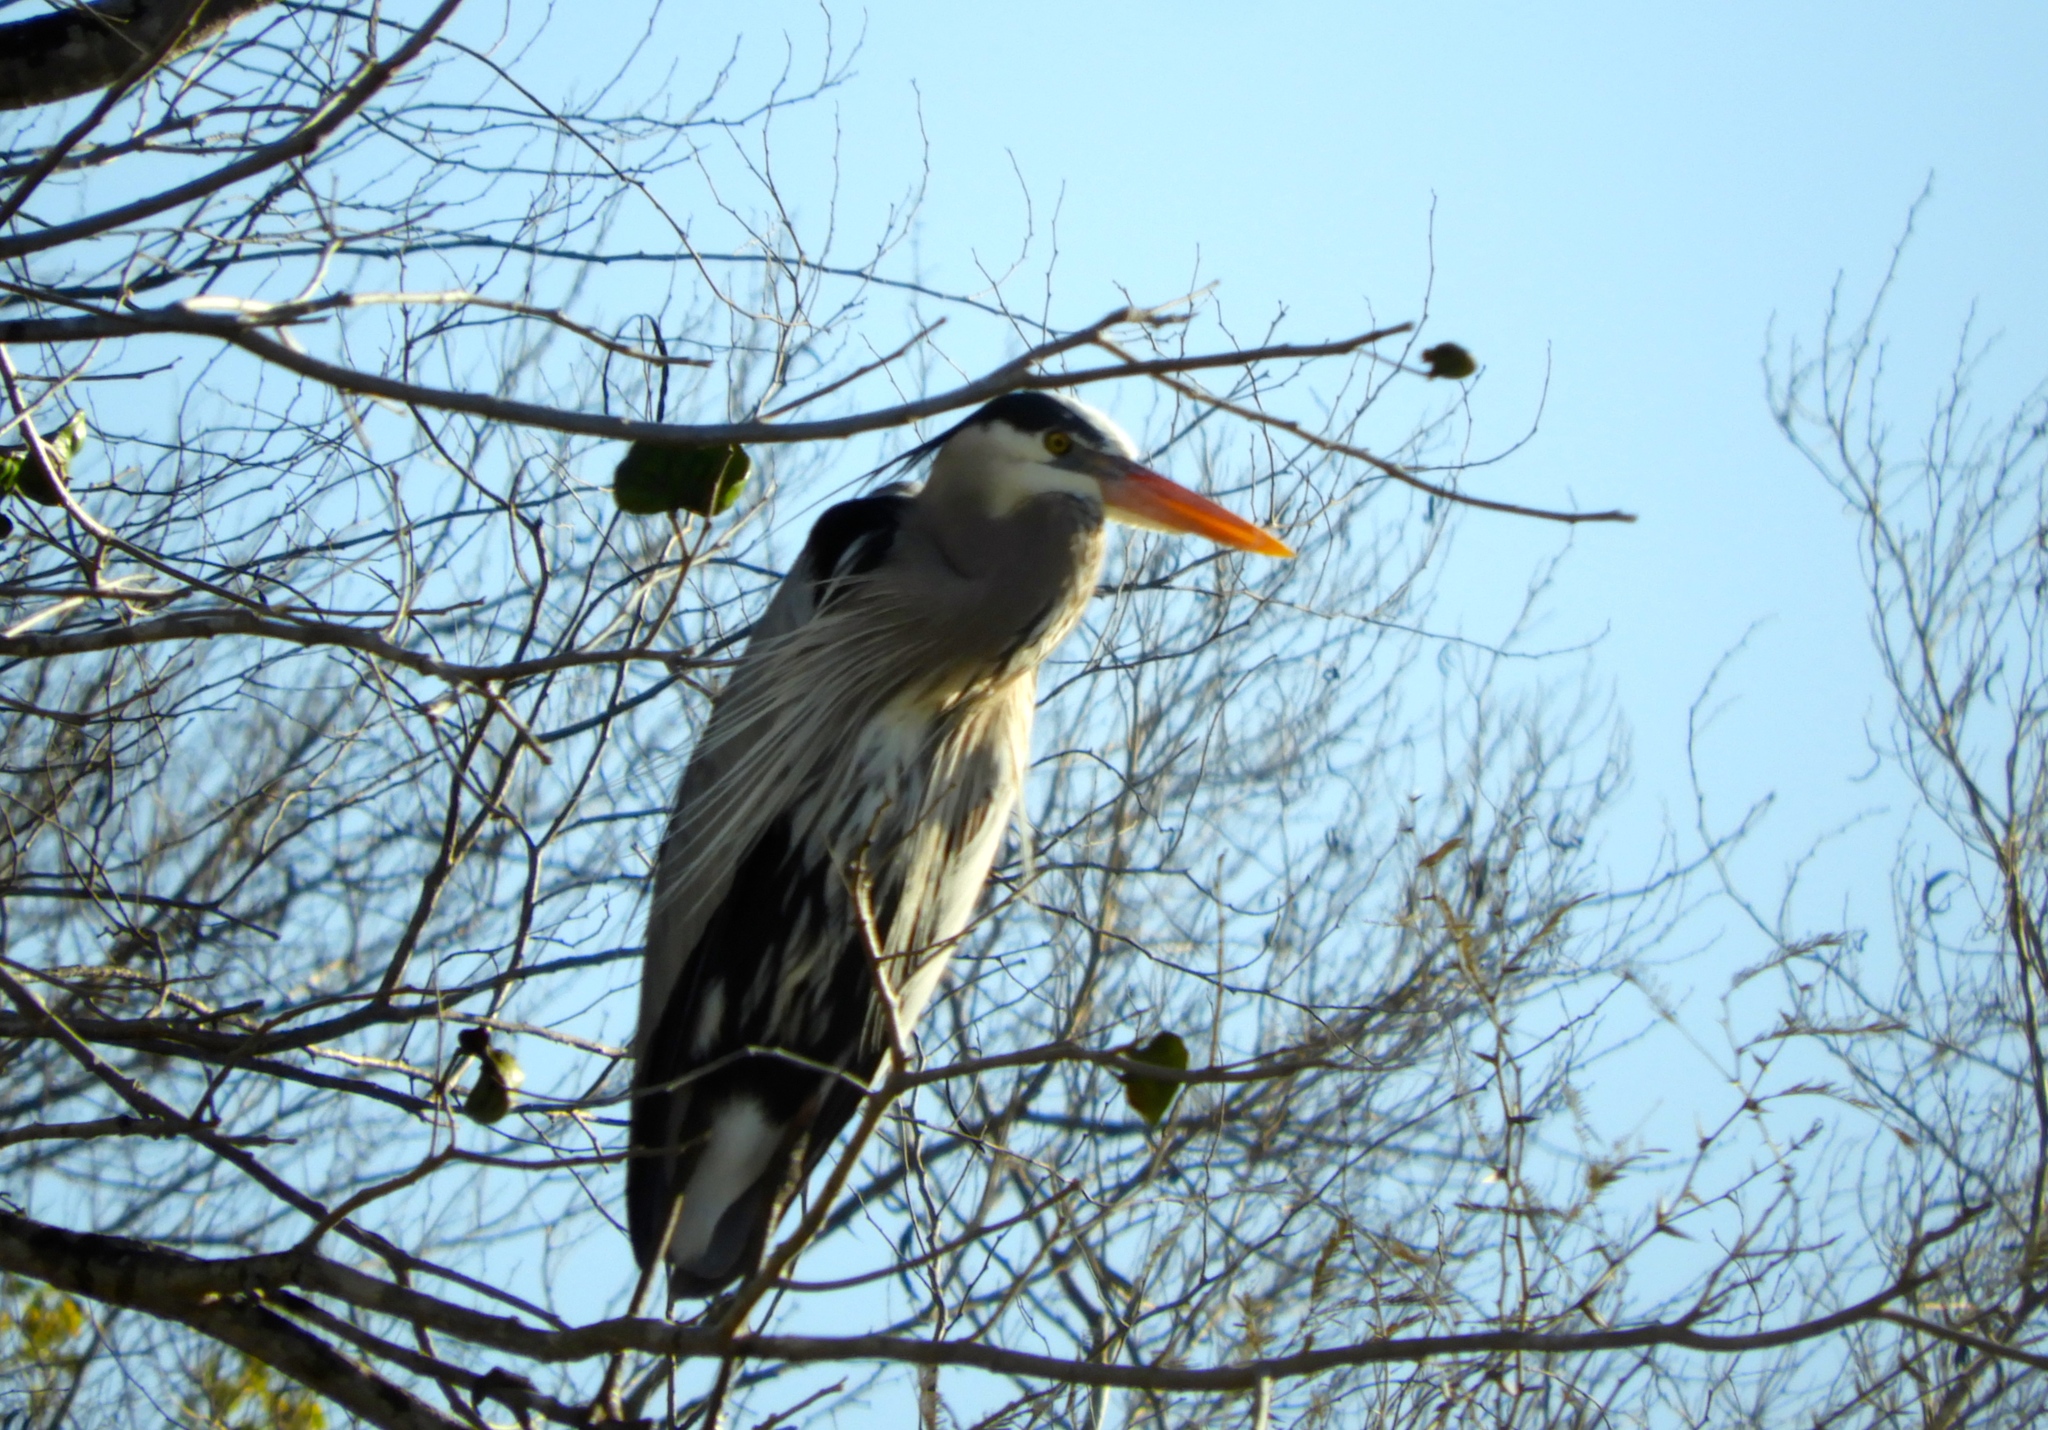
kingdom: Animalia
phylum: Chordata
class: Aves
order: Pelecaniformes
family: Ardeidae
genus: Ardea
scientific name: Ardea herodias
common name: Great blue heron
